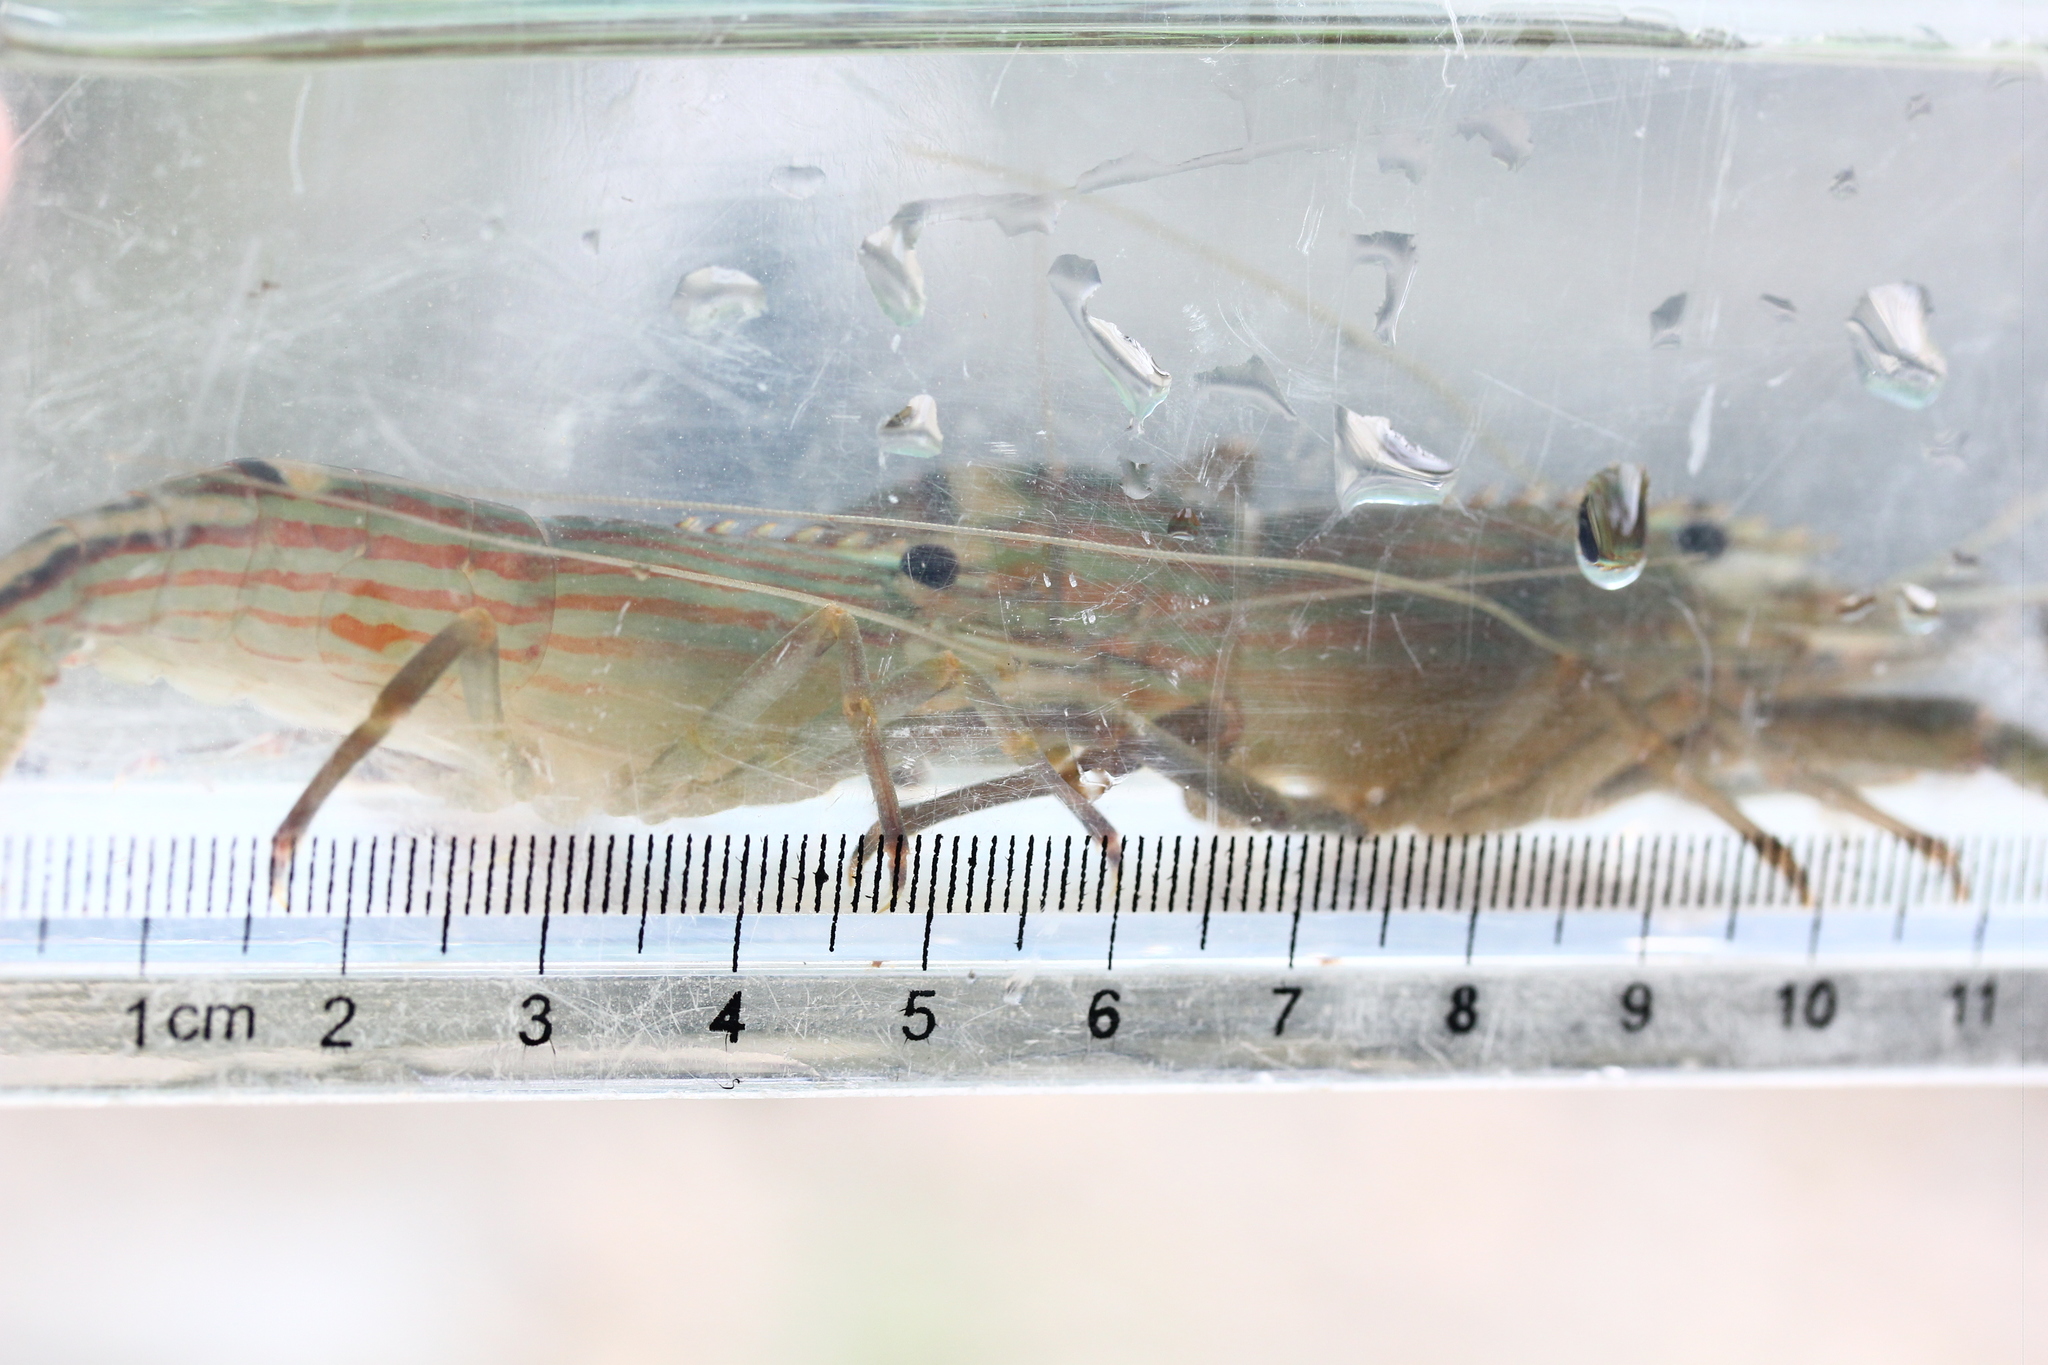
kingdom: Animalia
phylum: Arthropoda
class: Malacostraca
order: Decapoda
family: Palaemonidae
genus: Macrobrachium
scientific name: Macrobrachium gracilirostre
